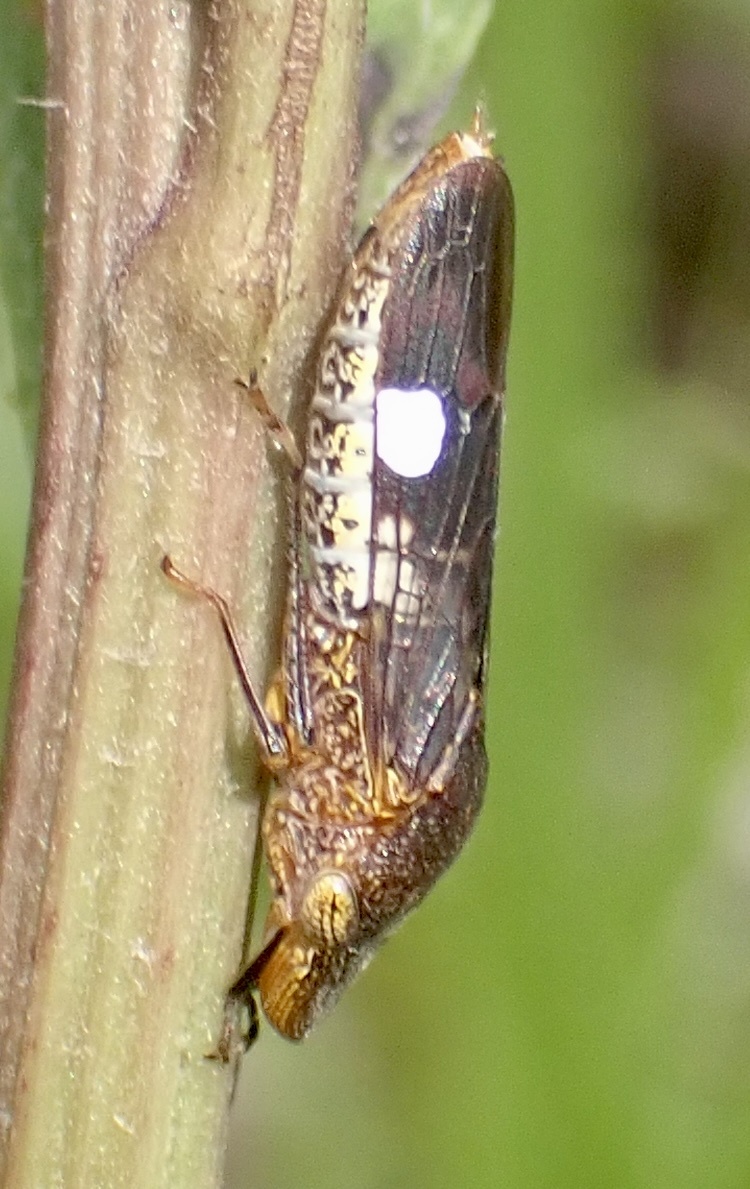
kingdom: Animalia
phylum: Arthropoda
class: Insecta
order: Hemiptera
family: Cicadellidae
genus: Homalodisca
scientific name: Homalodisca vitripennis
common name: Glassy-winged sharpshooter
